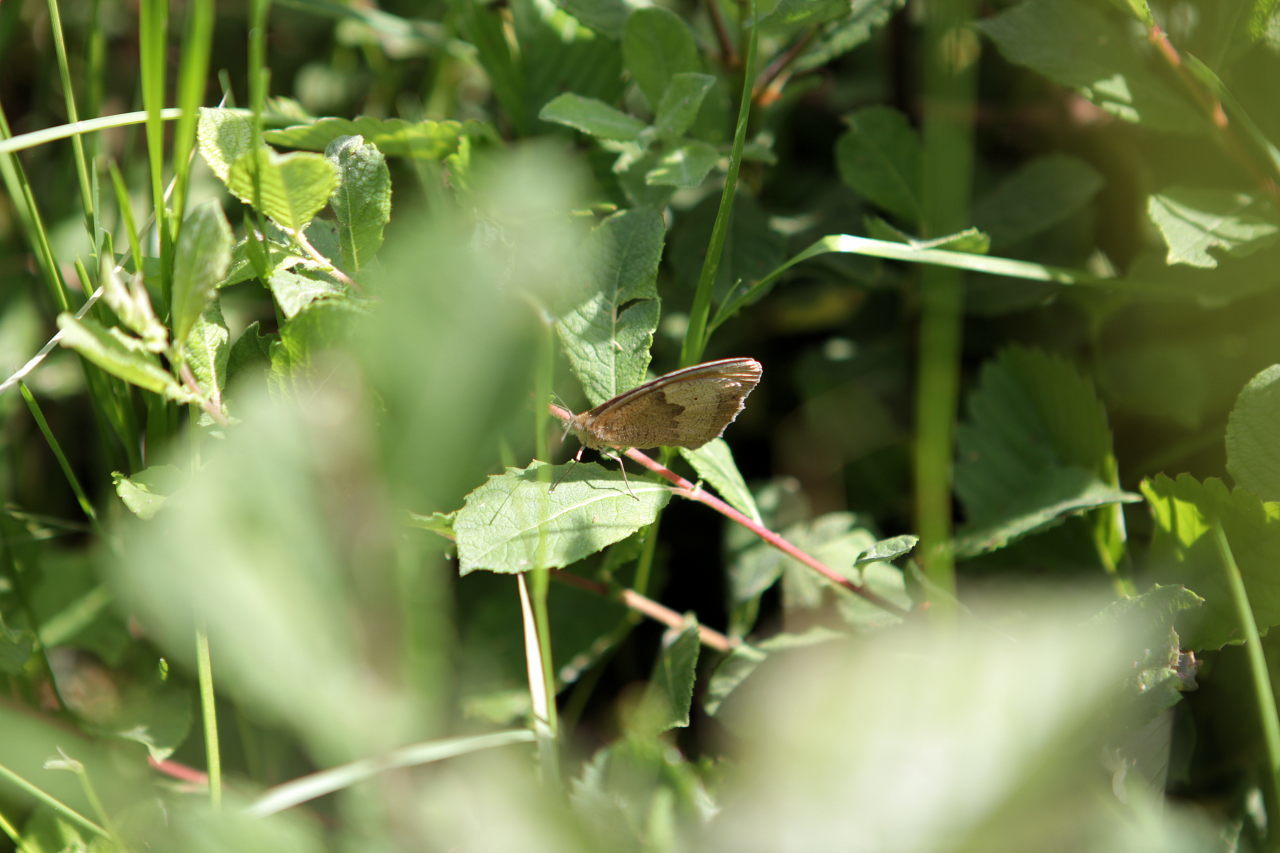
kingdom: Animalia
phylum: Arthropoda
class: Insecta
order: Lepidoptera
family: Nymphalidae
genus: Maniola
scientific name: Maniola jurtina
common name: Meadow brown
